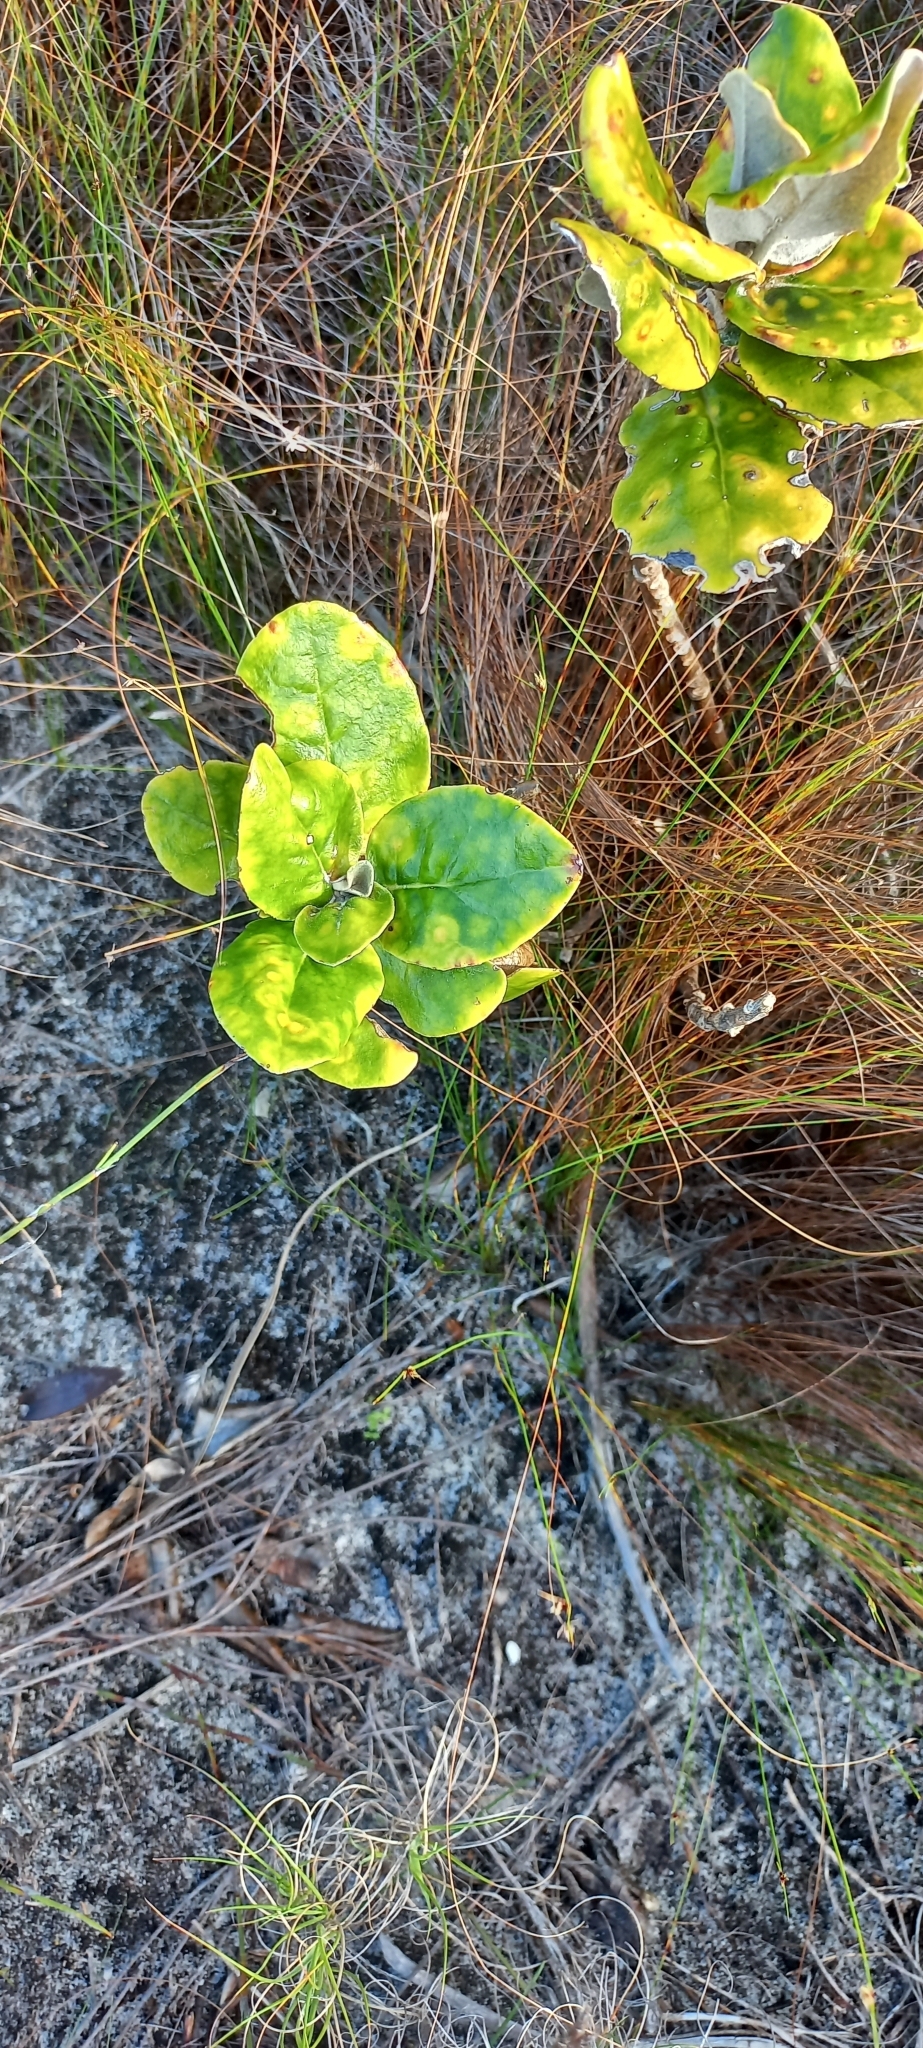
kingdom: Plantae
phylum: Tracheophyta
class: Magnoliopsida
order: Asterales
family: Asteraceae
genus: Capelio
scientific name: Capelio tabularis
